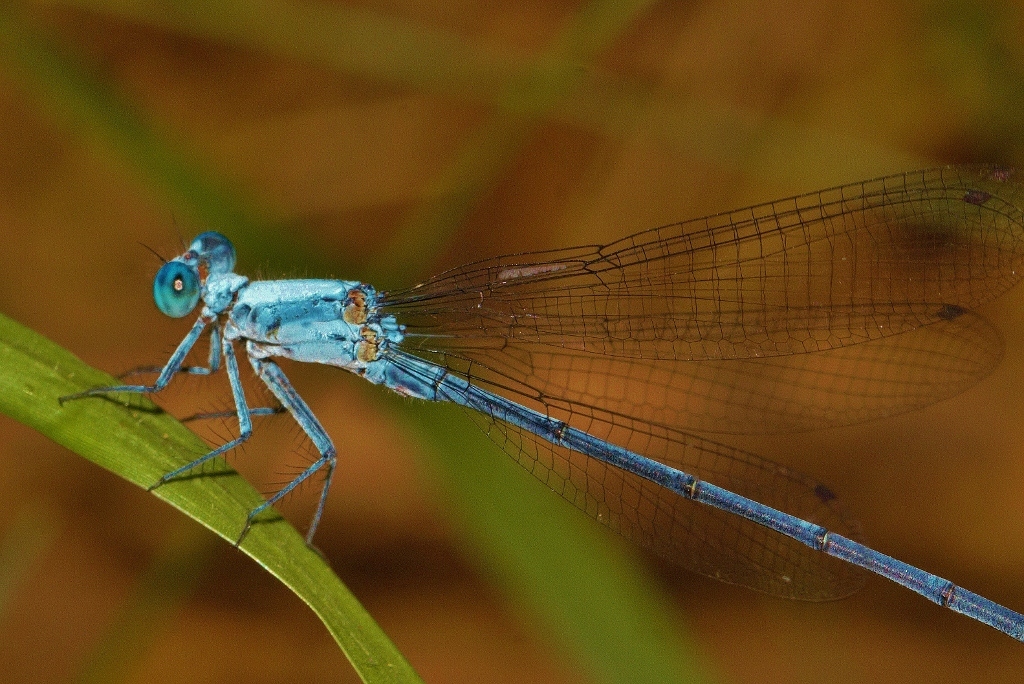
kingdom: Animalia
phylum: Arthropoda
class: Insecta
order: Odonata
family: Platycnemididae
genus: Mesocnemis
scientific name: Mesocnemis singularis
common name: Common riverjack
